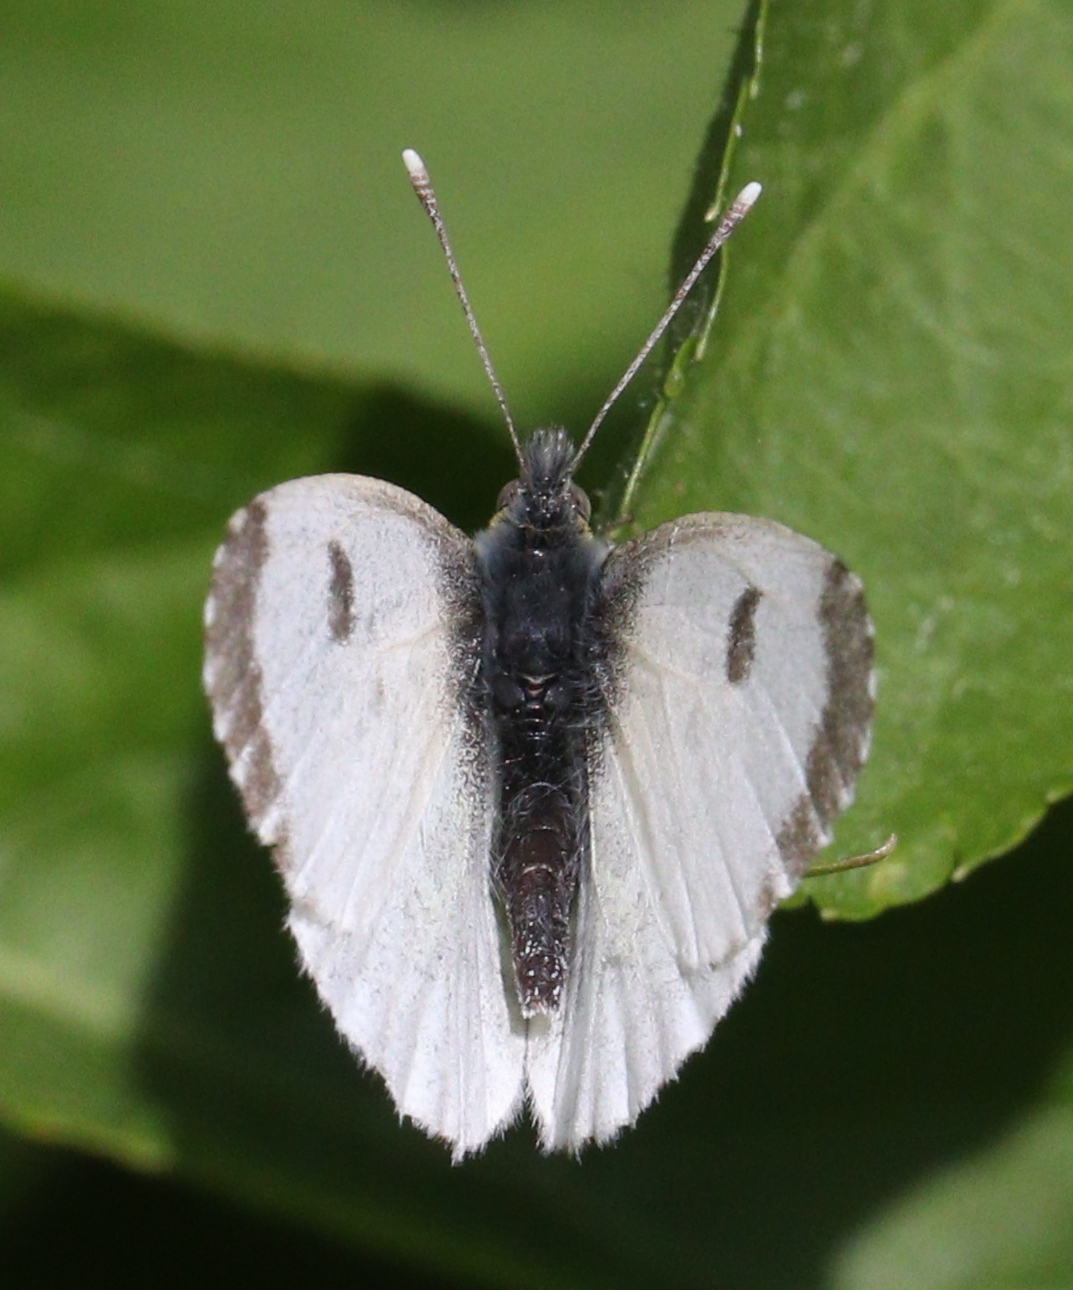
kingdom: Animalia
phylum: Arthropoda
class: Insecta
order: Lepidoptera
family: Pieridae
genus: Anthocharis
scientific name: Anthocharis cardamines
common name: Orange-tip
